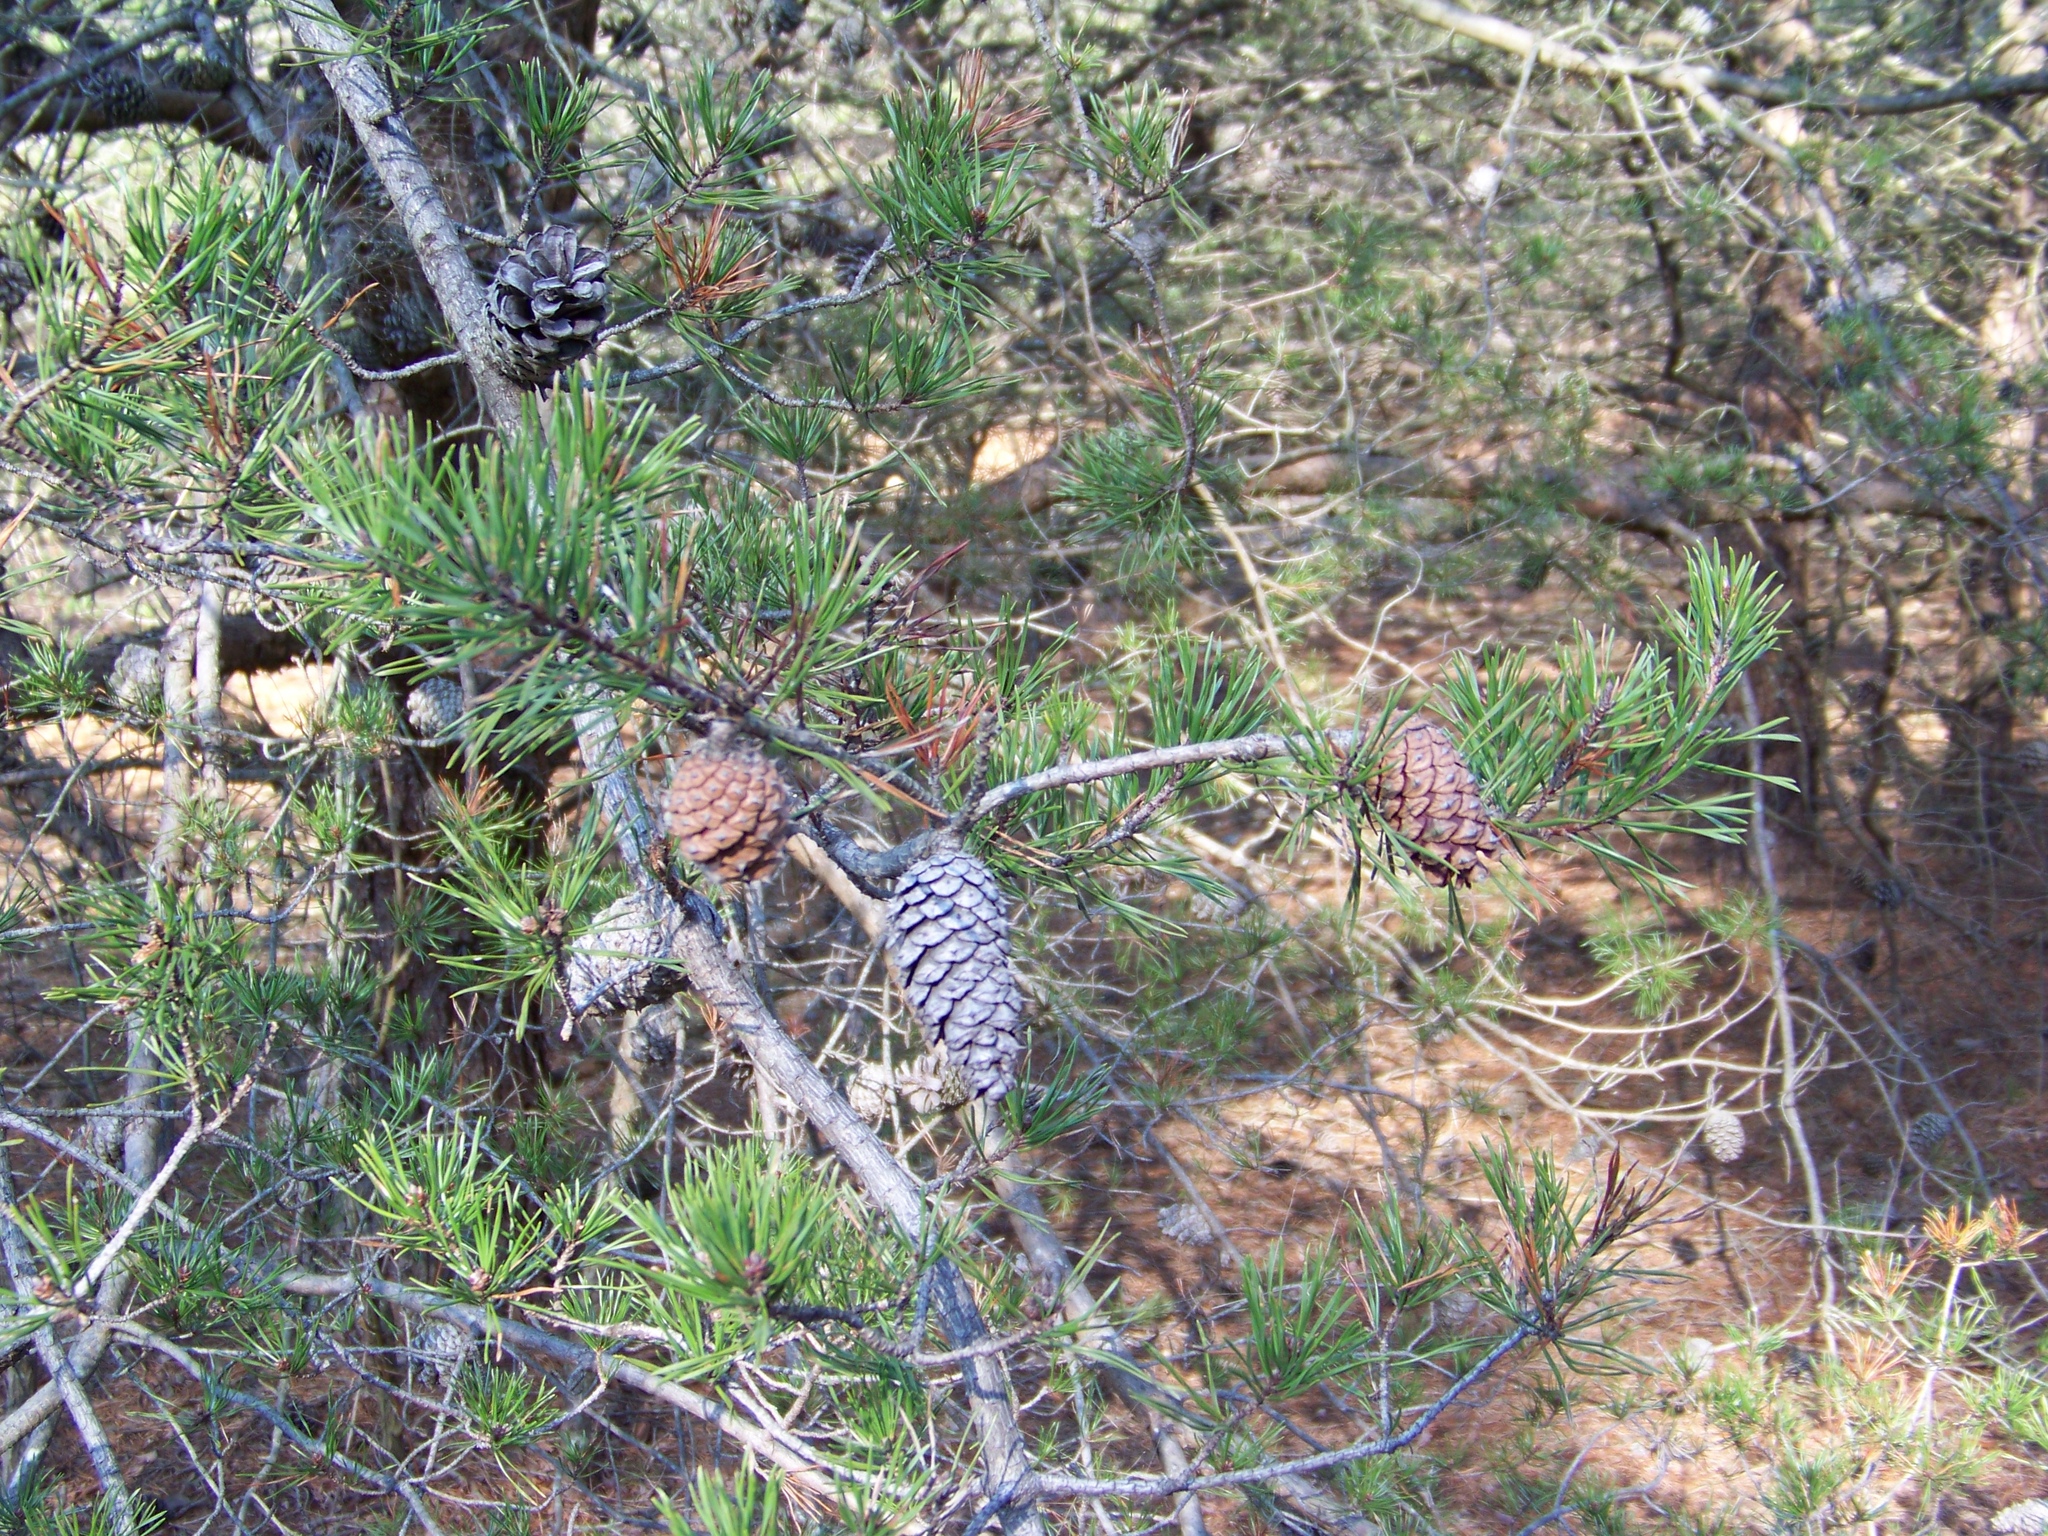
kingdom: Plantae
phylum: Tracheophyta
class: Pinopsida
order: Pinales
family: Pinaceae
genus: Pinus
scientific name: Pinus virginiana
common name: Scrub pine
